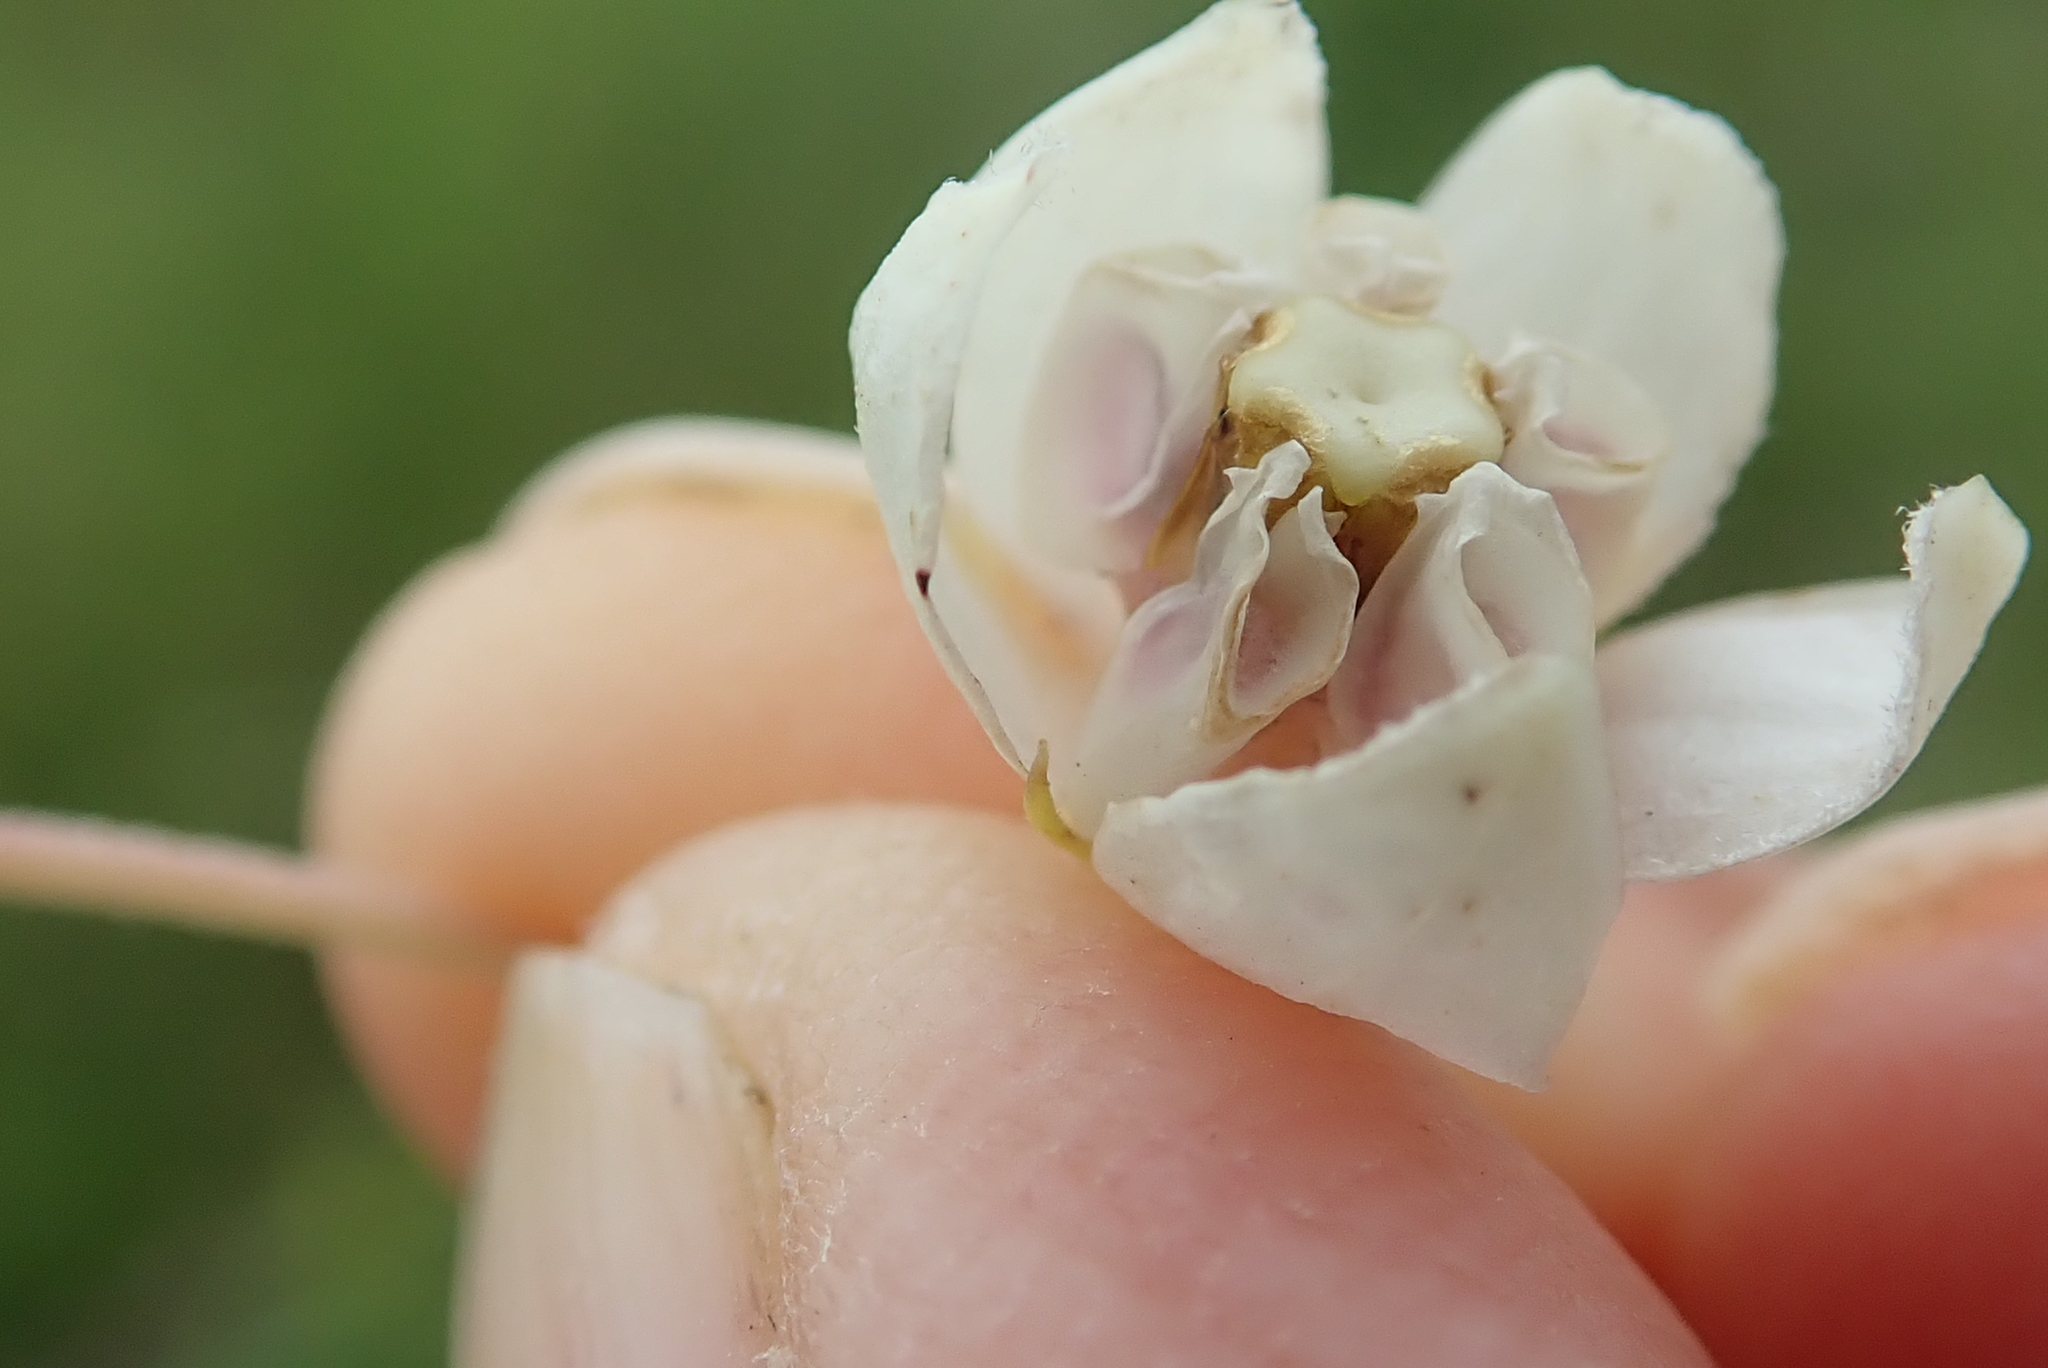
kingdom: Plantae
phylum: Tracheophyta
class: Magnoliopsida
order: Gentianales
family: Apocynaceae
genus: Gomphocarpus
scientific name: Gomphocarpus physocarpus
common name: Balloon cotton bush
